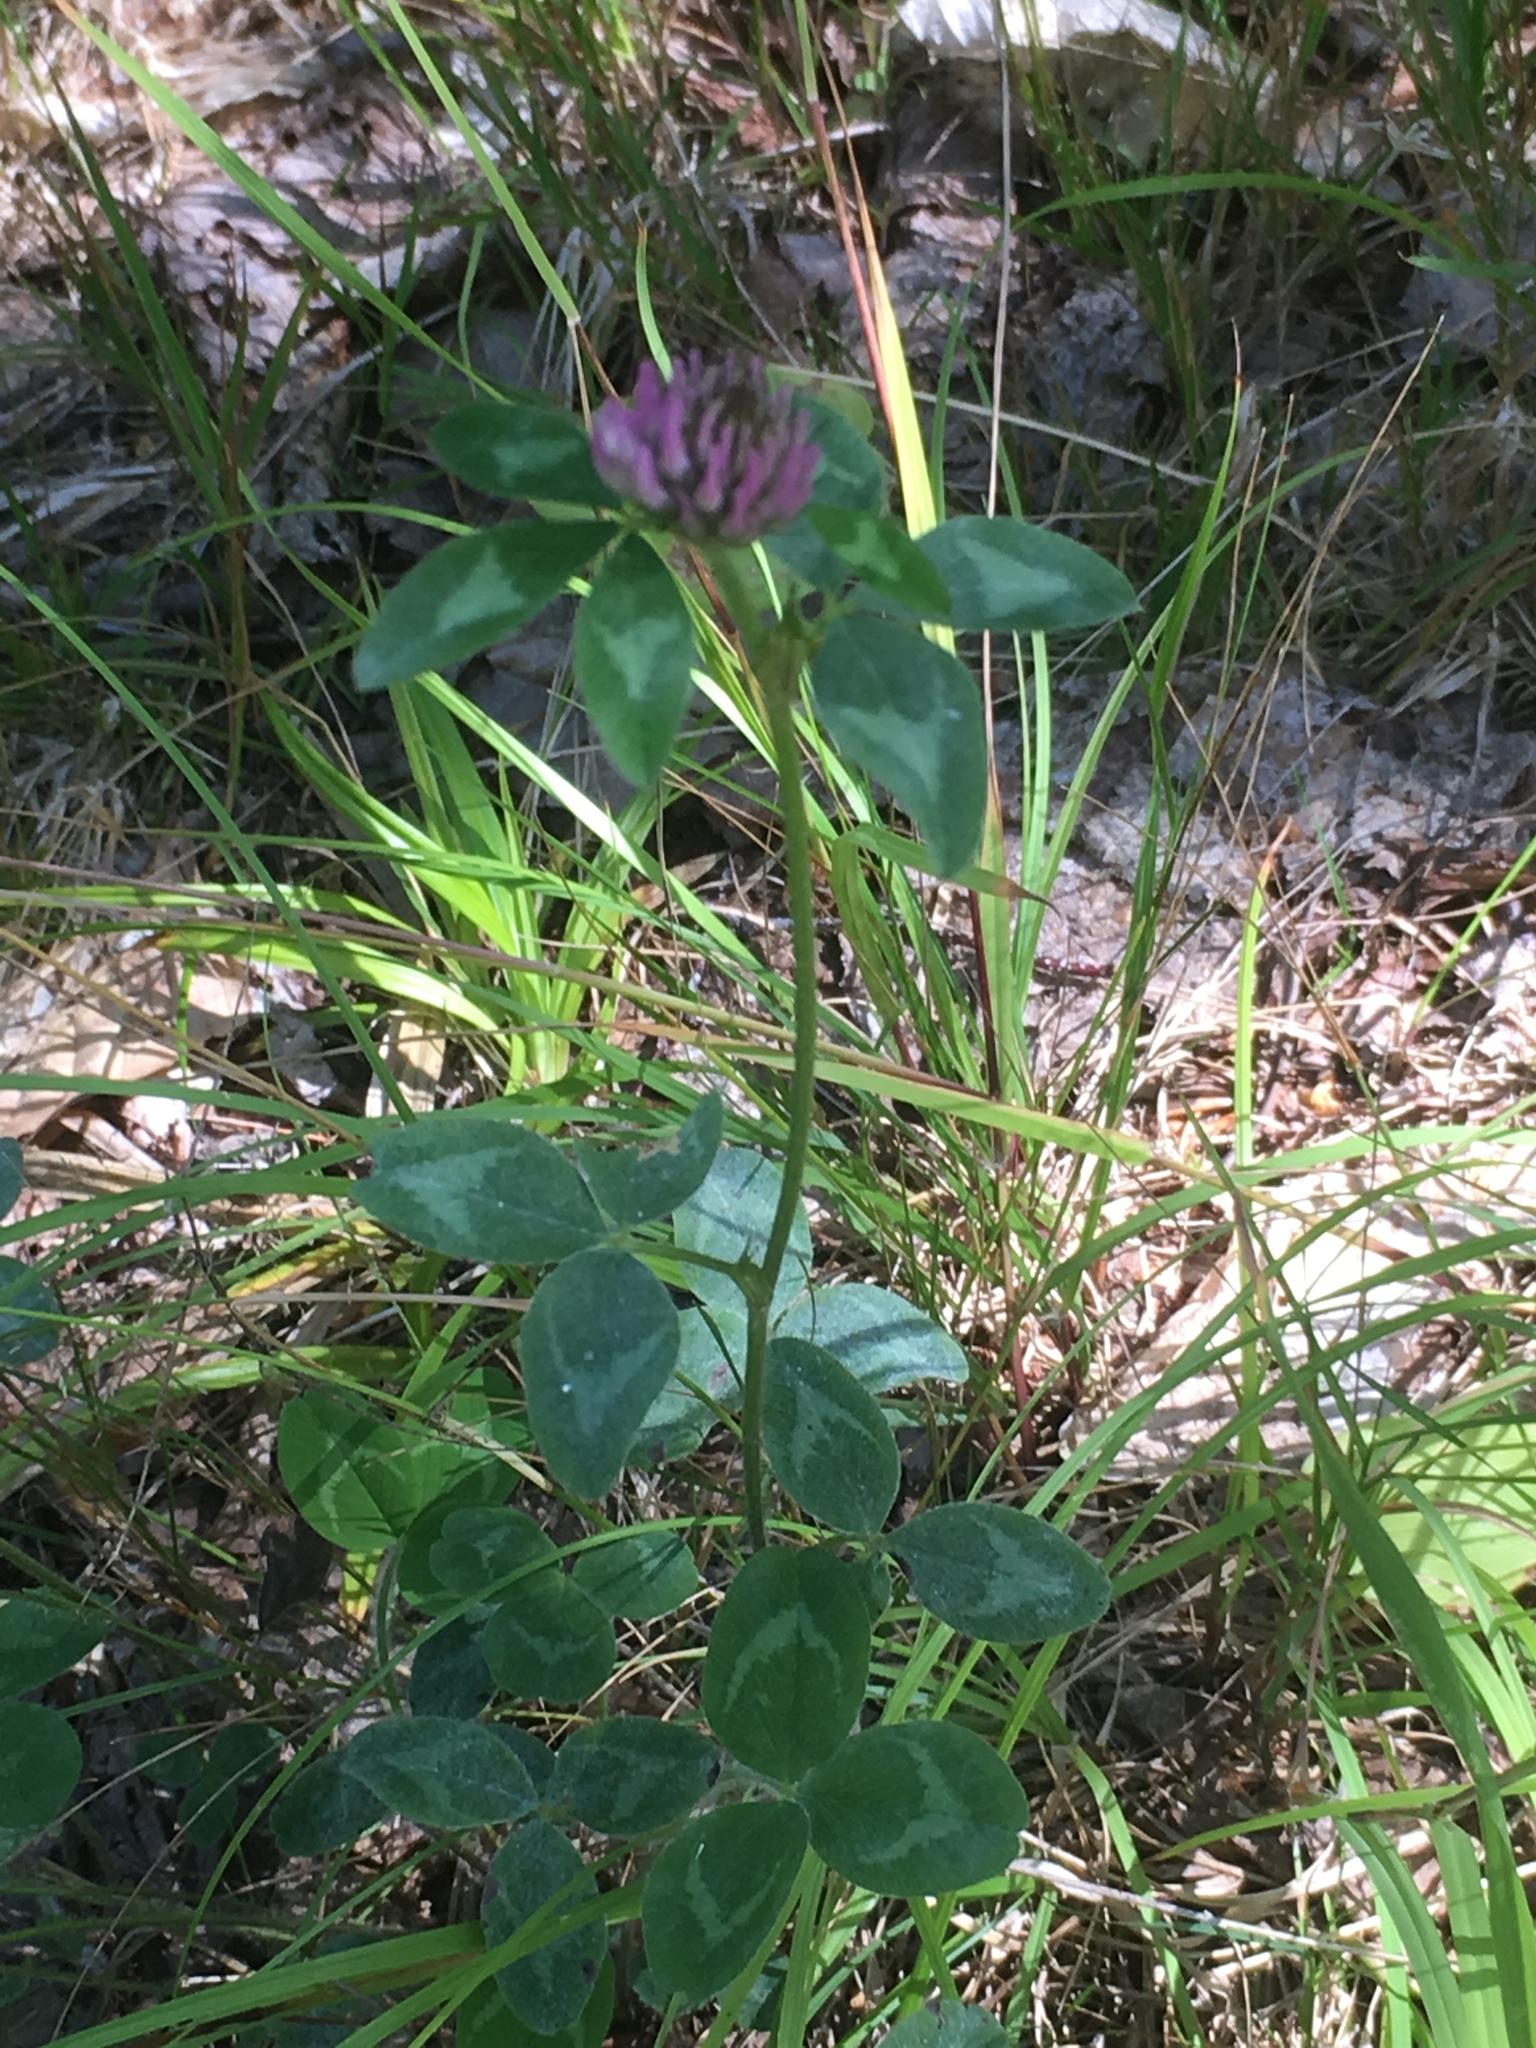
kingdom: Plantae
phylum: Tracheophyta
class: Magnoliopsida
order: Fabales
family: Fabaceae
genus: Trifolium
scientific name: Trifolium pratense
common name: Red clover
